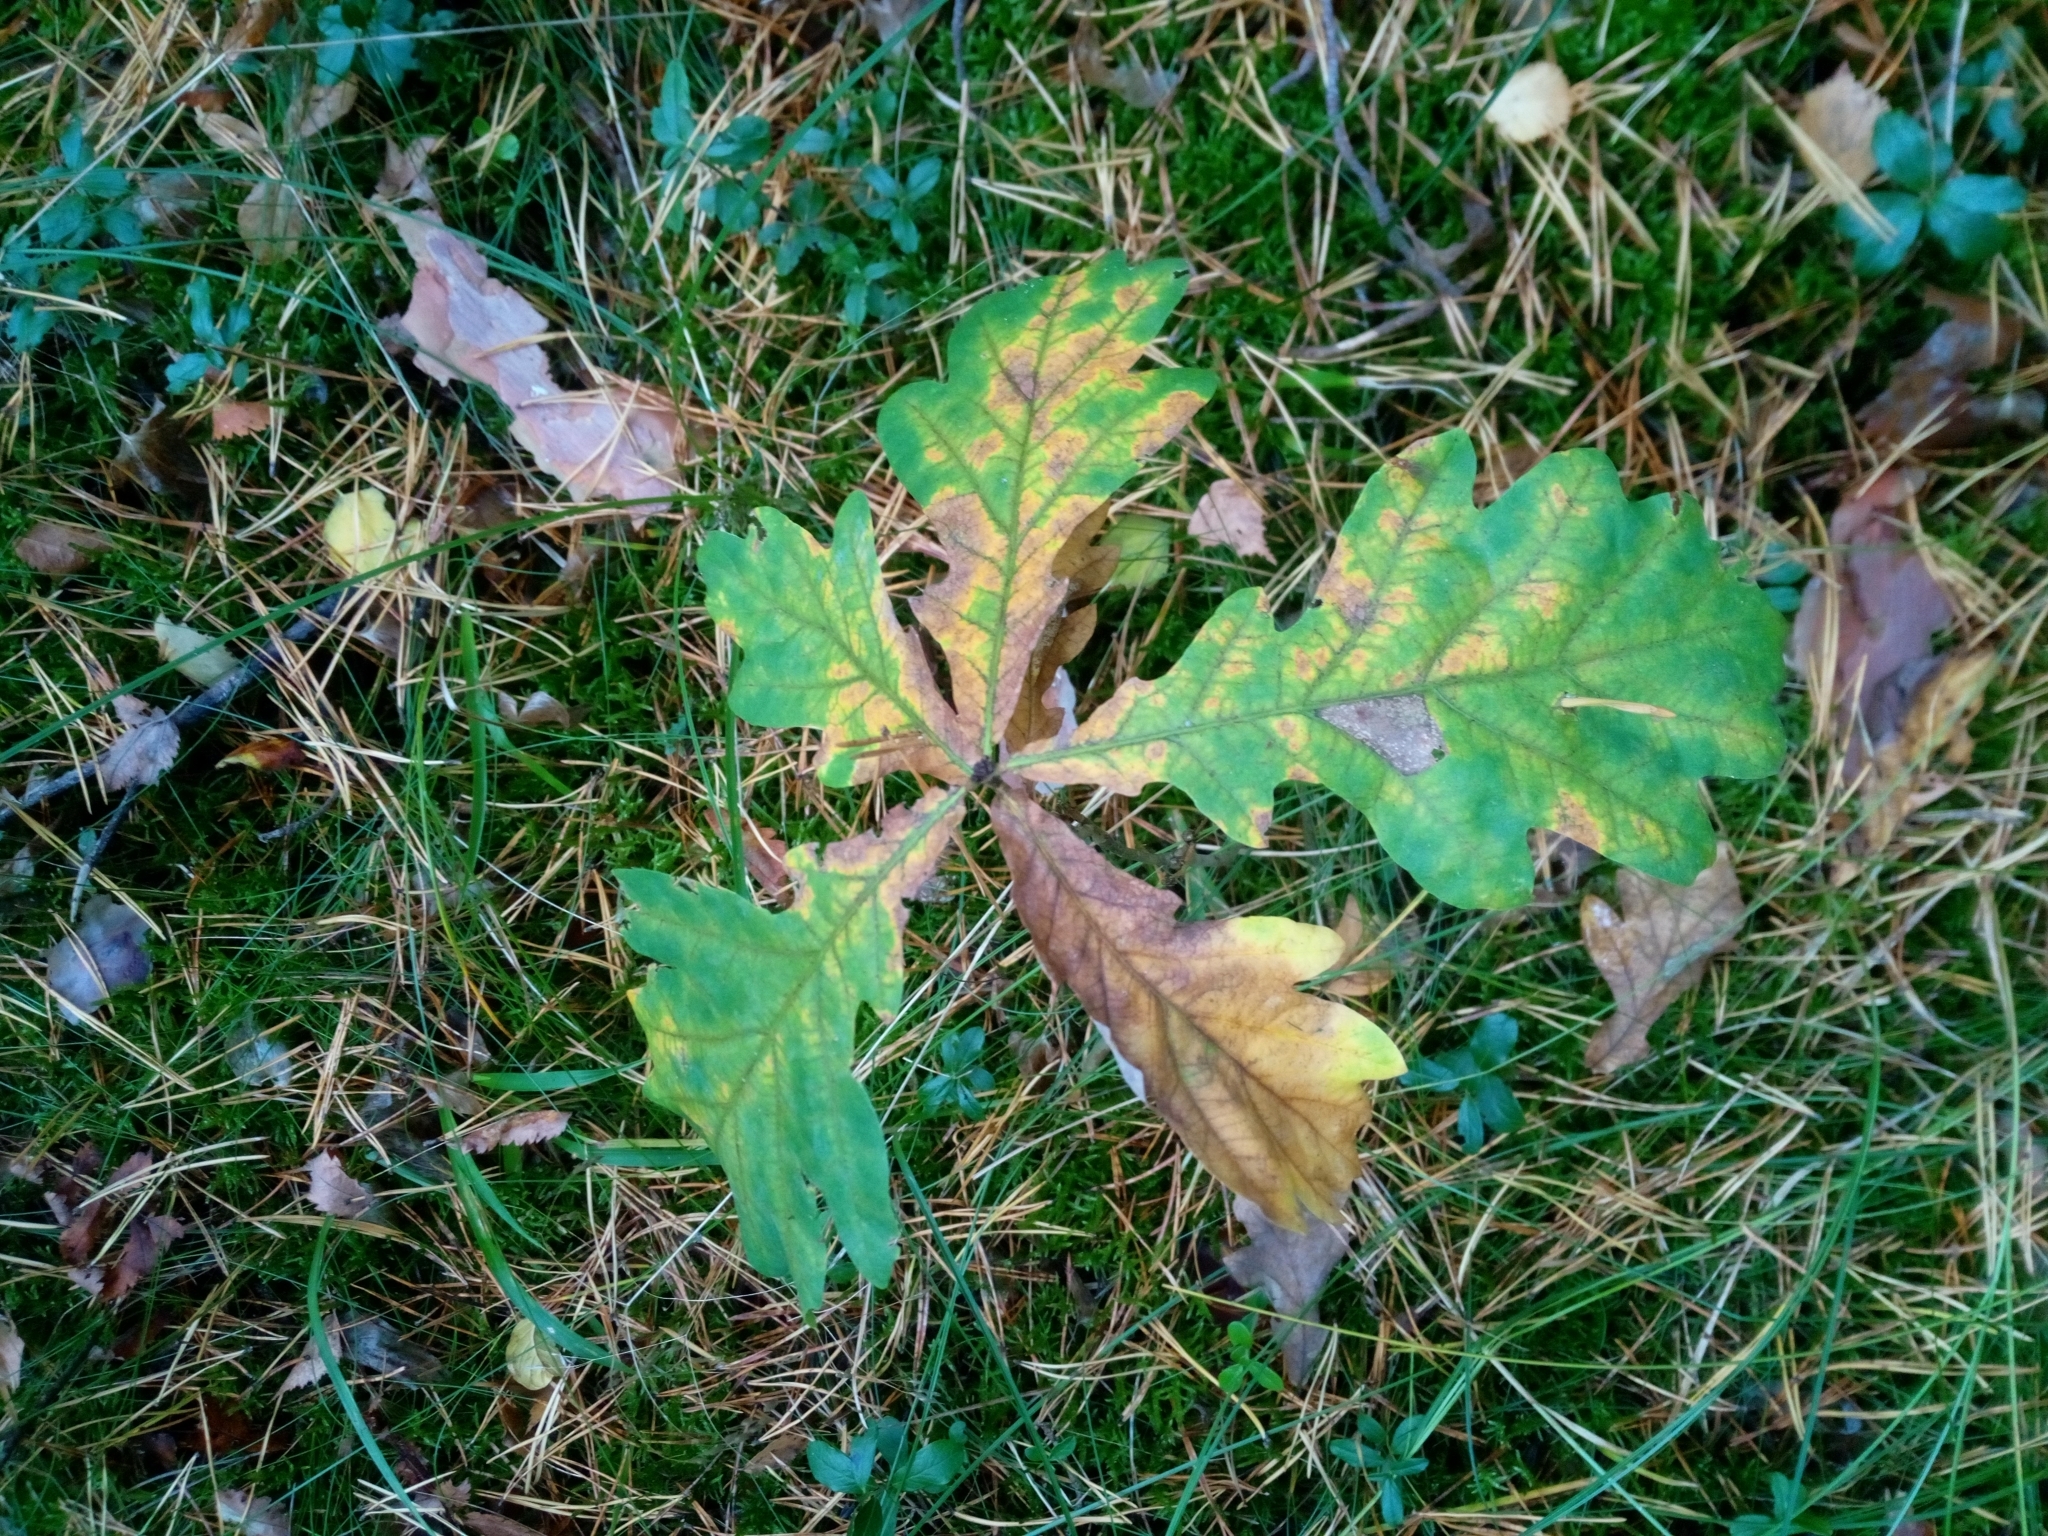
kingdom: Plantae
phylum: Tracheophyta
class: Magnoliopsida
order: Fagales
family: Fagaceae
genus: Quercus
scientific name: Quercus robur
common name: Pedunculate oak
